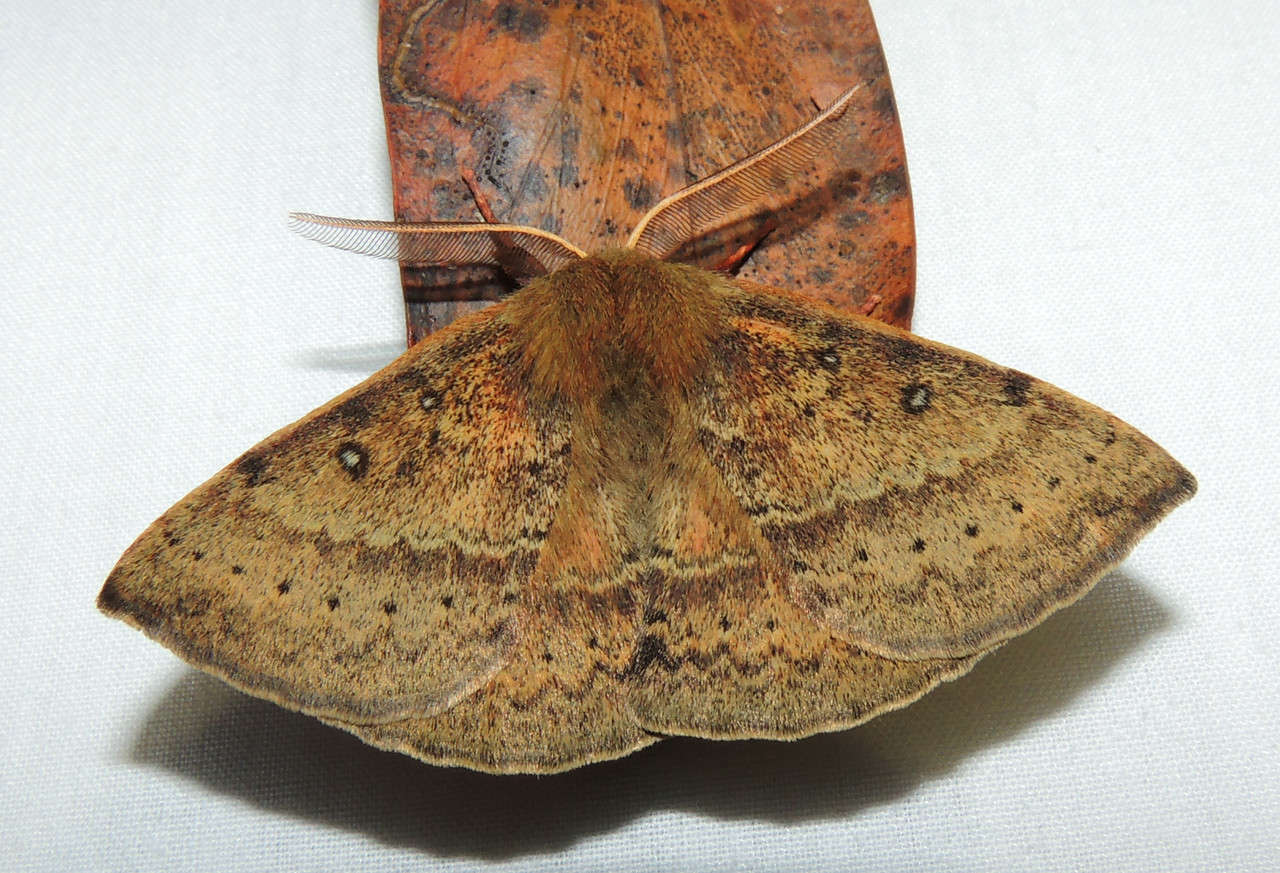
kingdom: Animalia
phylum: Arthropoda
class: Insecta
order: Lepidoptera
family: Anthelidae
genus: Anthela
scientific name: Anthela repleta
